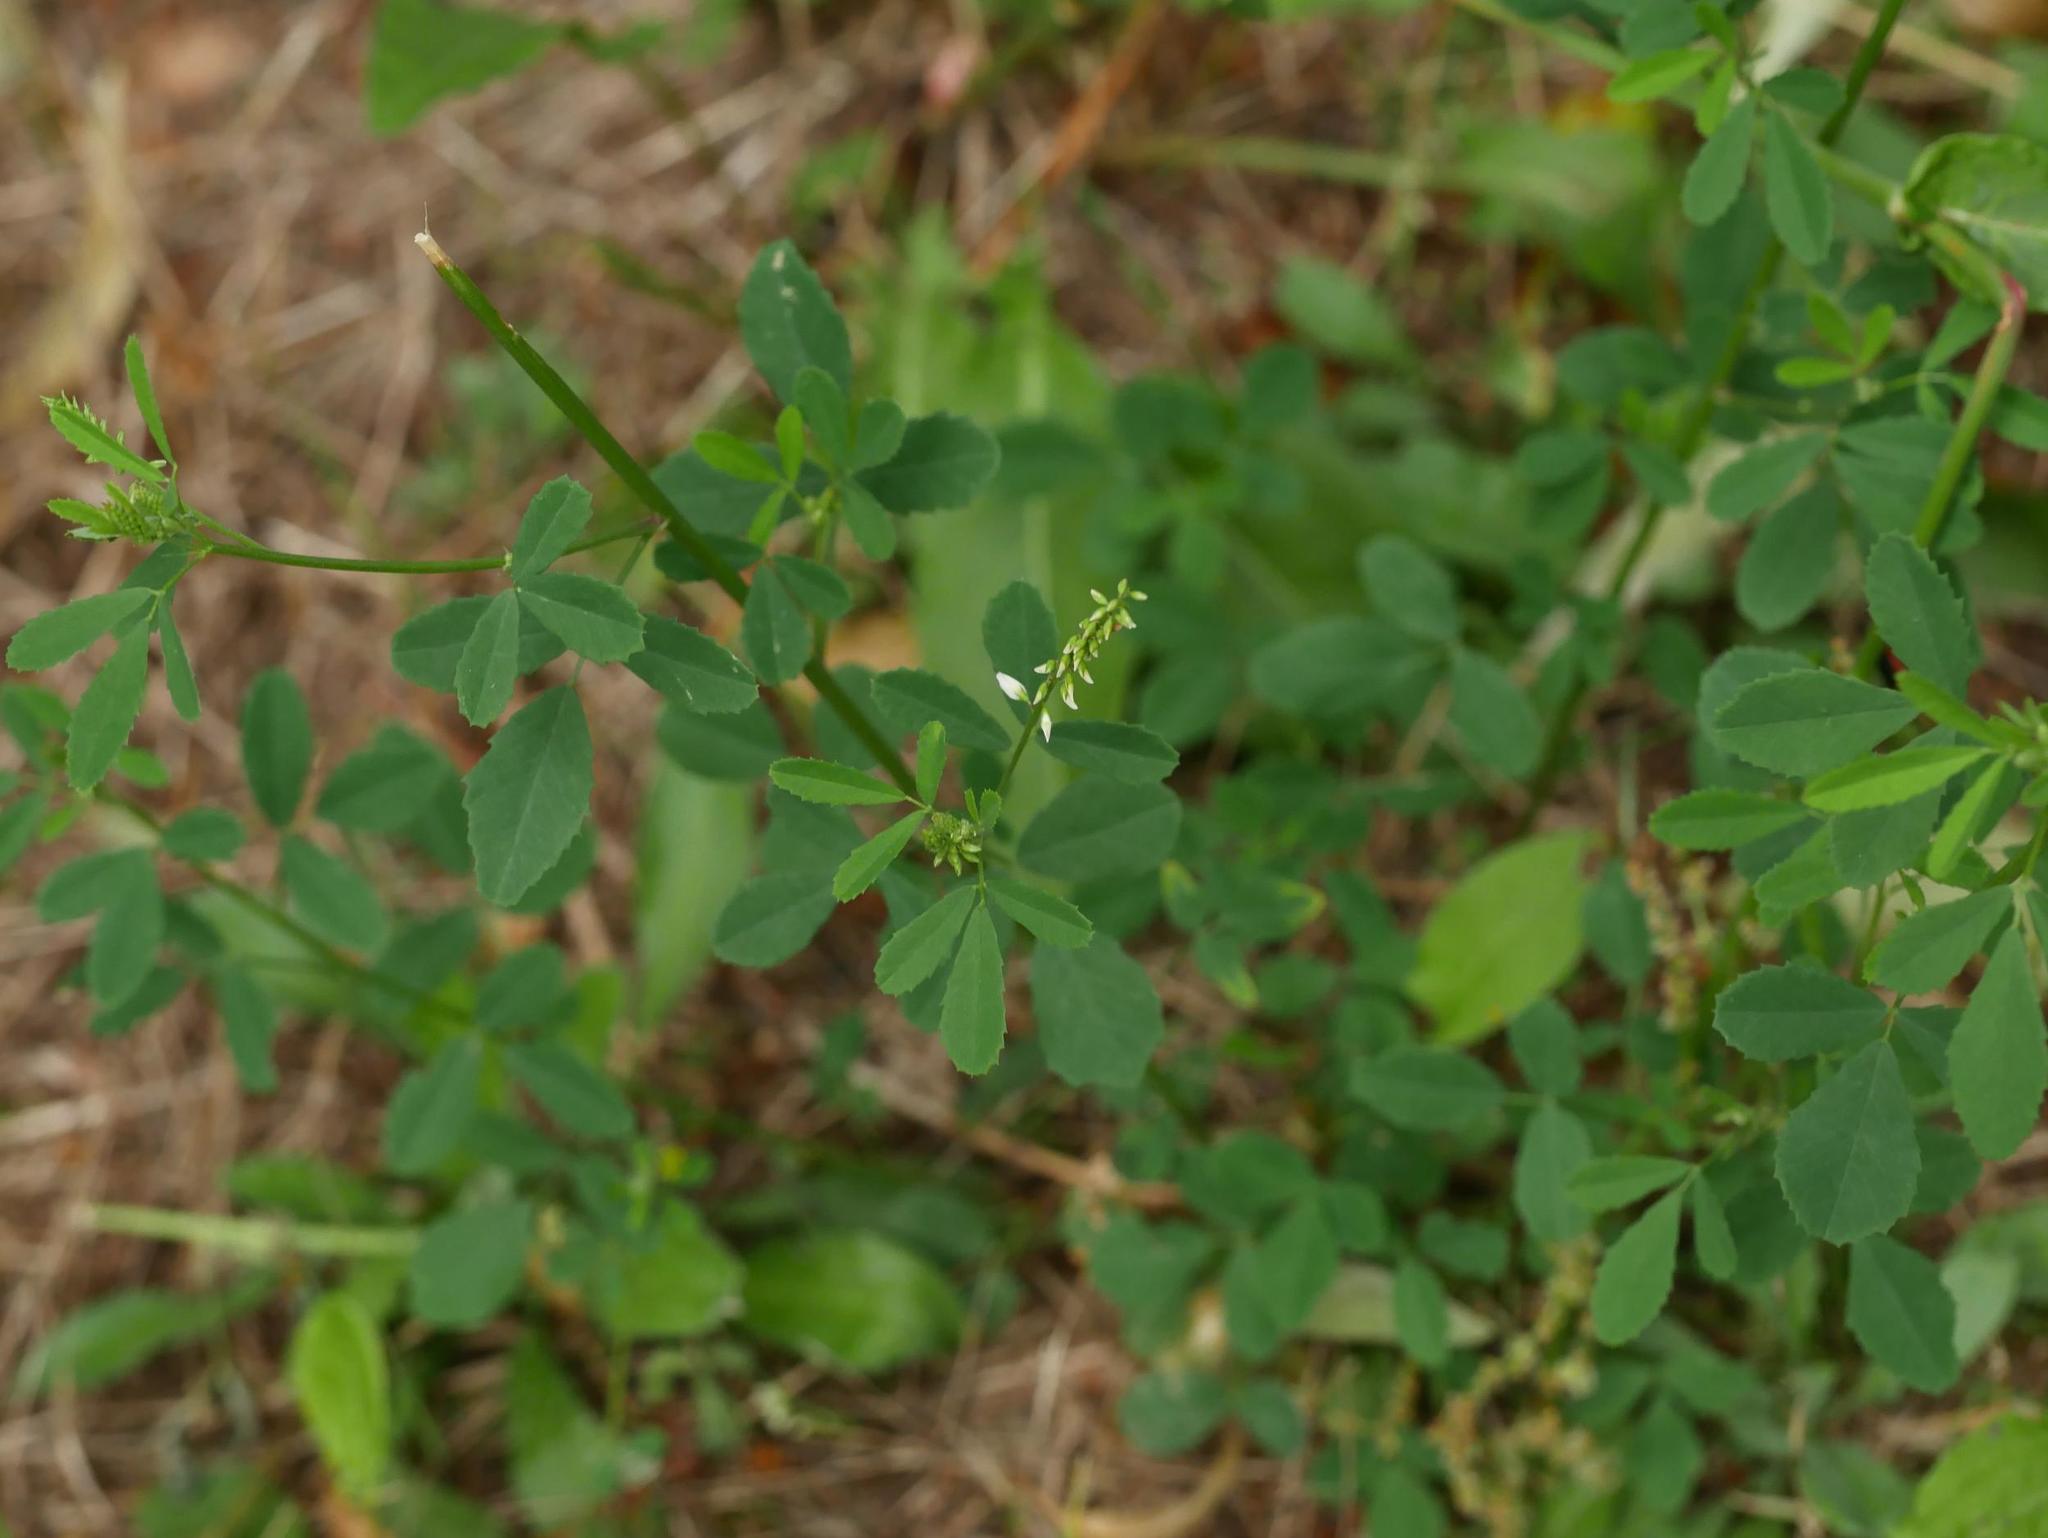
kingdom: Plantae
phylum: Tracheophyta
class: Magnoliopsida
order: Fabales
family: Fabaceae
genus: Melilotus
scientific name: Melilotus albus
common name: White melilot
